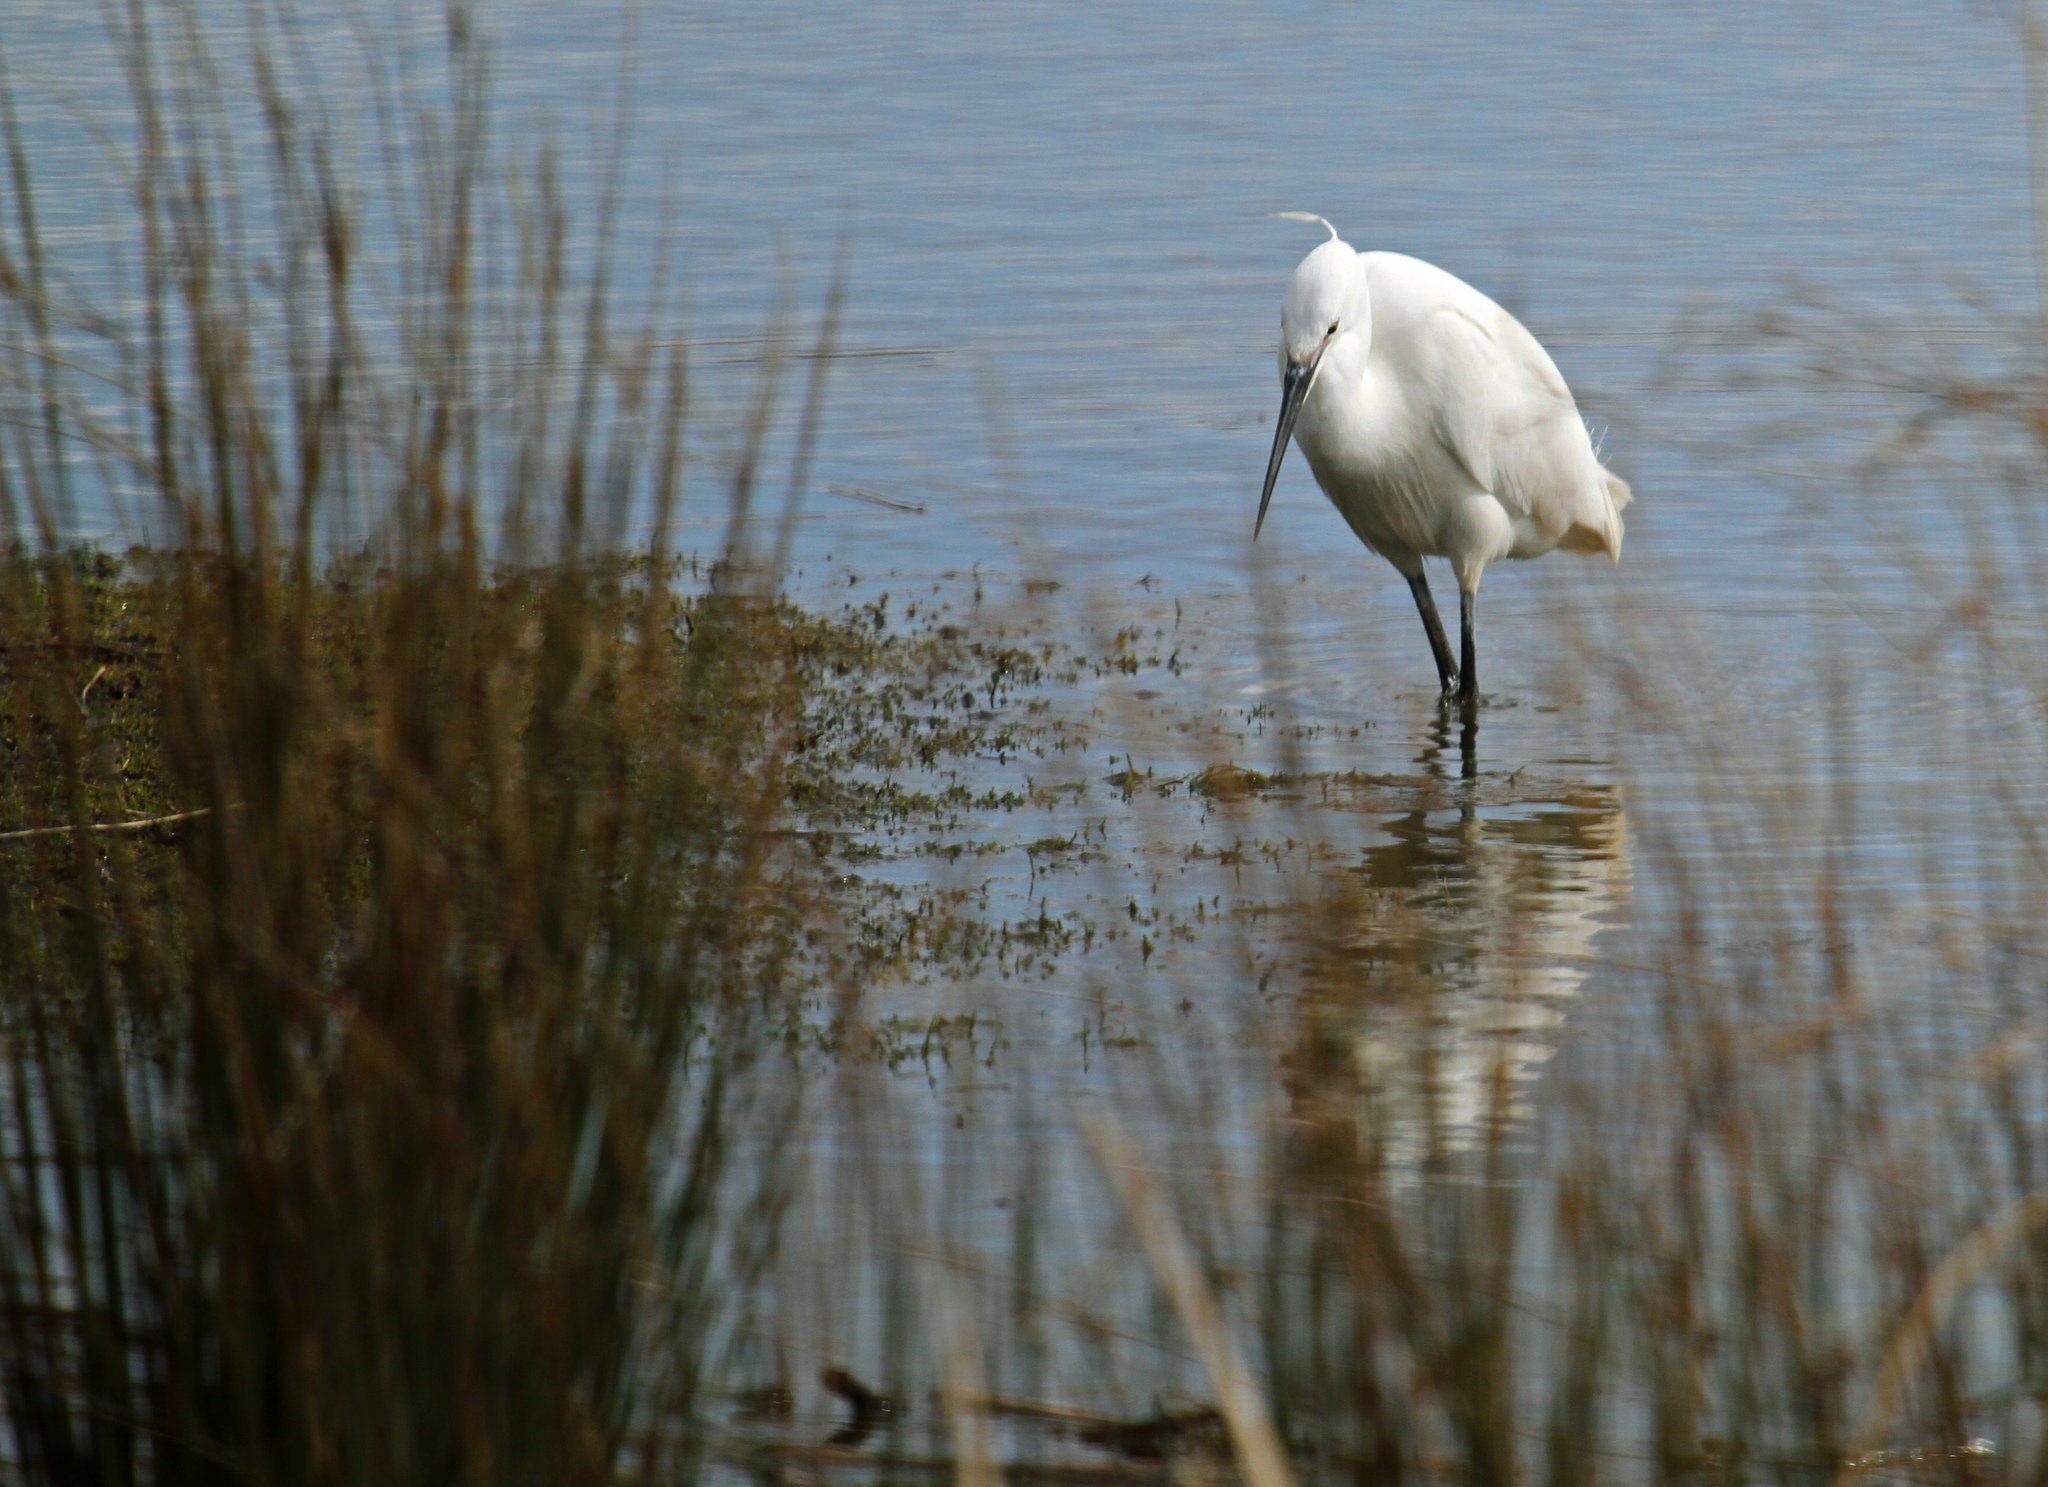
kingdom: Animalia
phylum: Chordata
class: Aves
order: Pelecaniformes
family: Ardeidae
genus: Egretta
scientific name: Egretta garzetta
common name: Little egret
